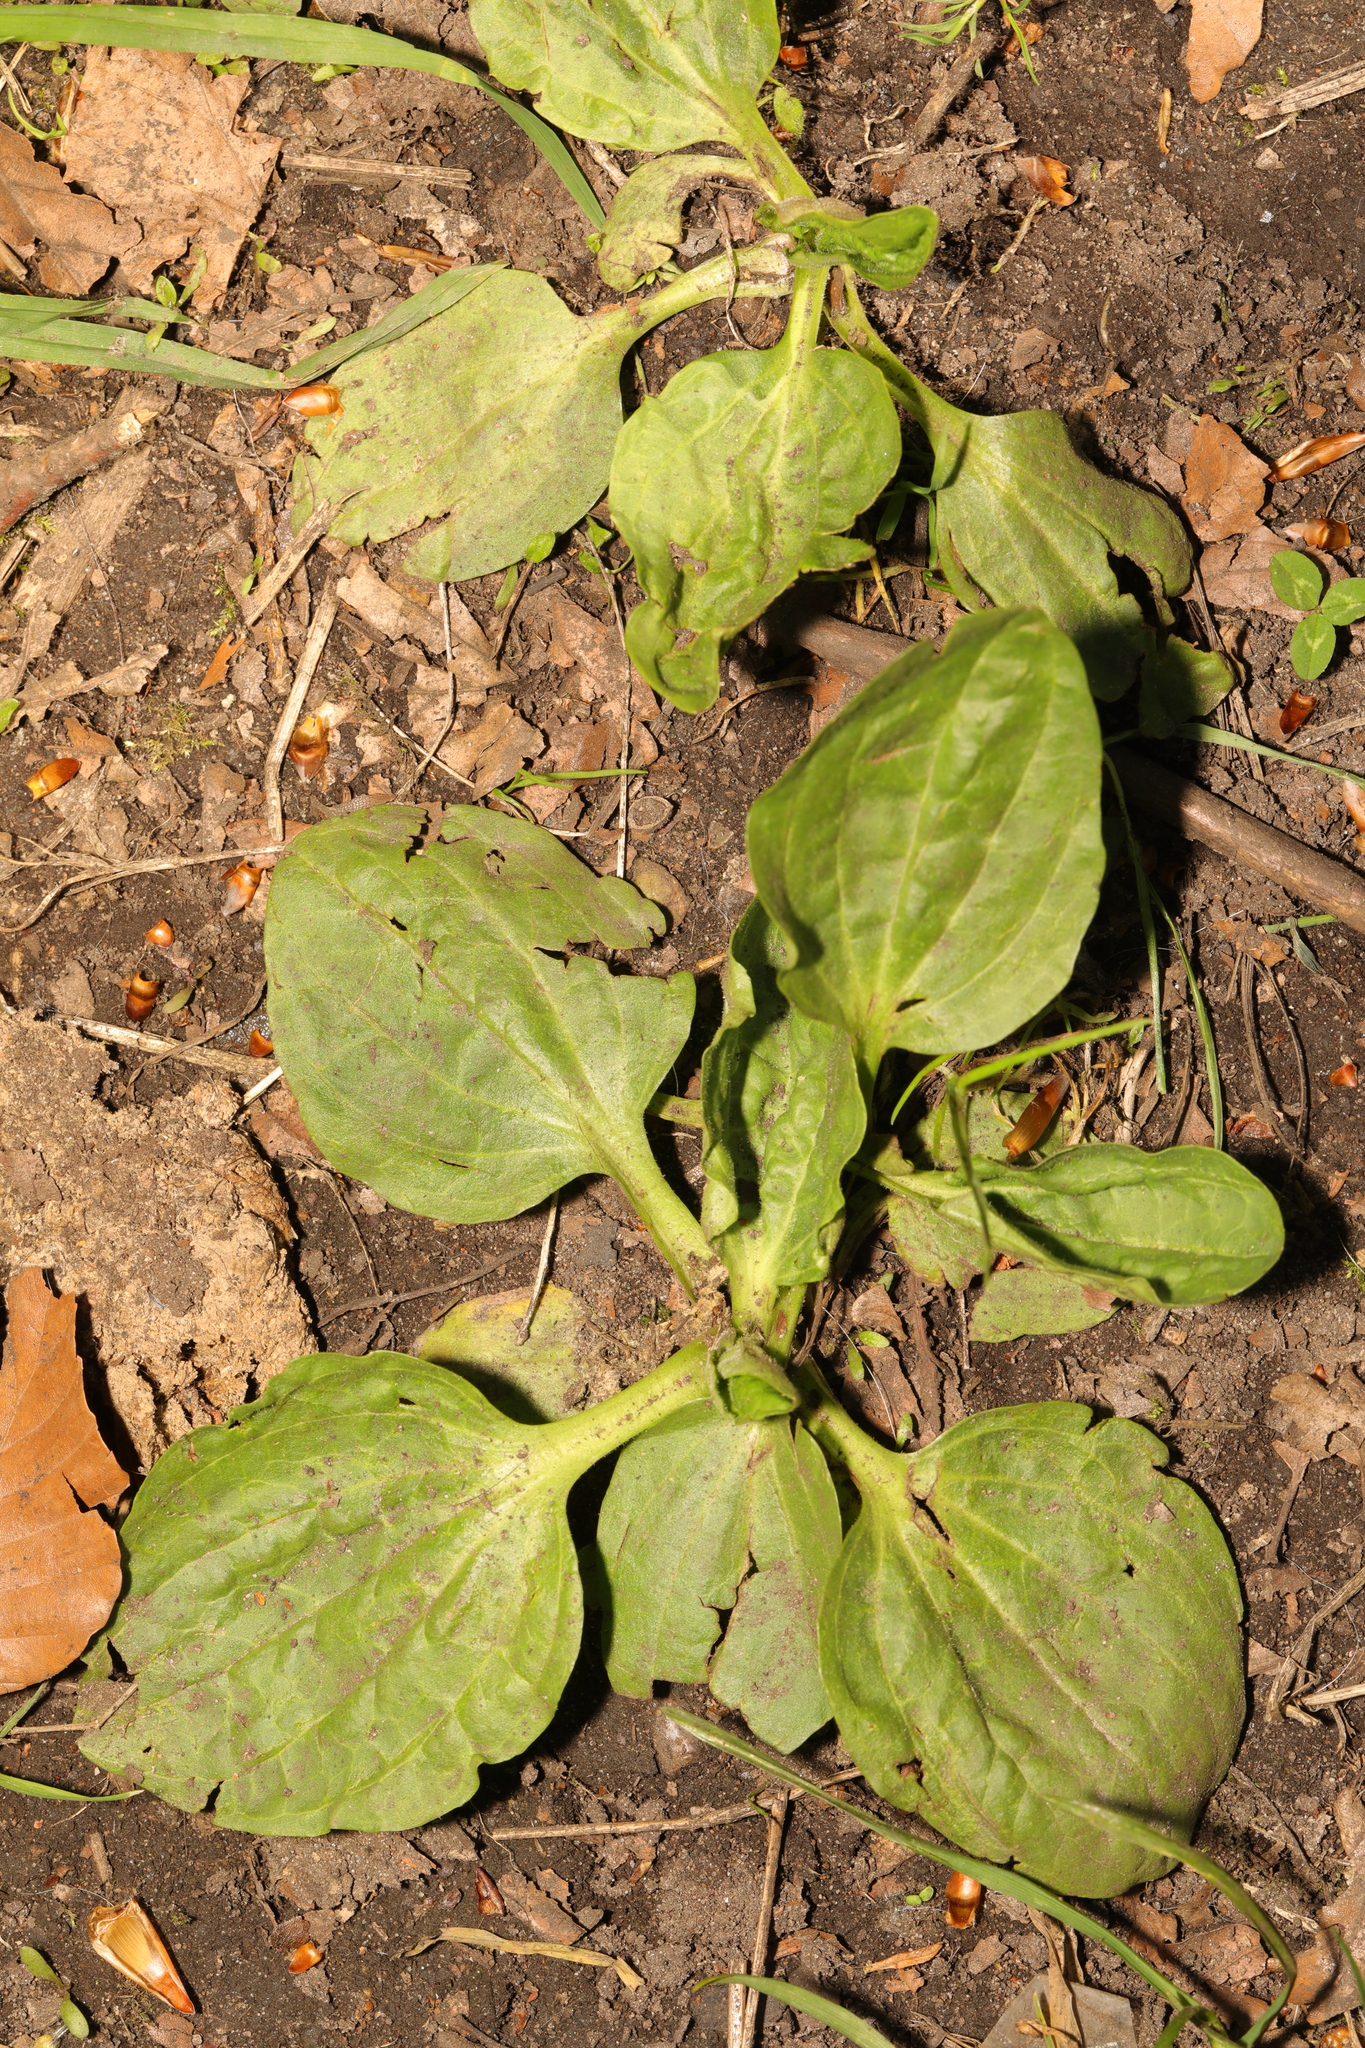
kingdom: Plantae
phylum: Tracheophyta
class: Magnoliopsida
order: Lamiales
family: Plantaginaceae
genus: Plantago
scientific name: Plantago major
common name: Common plantain
